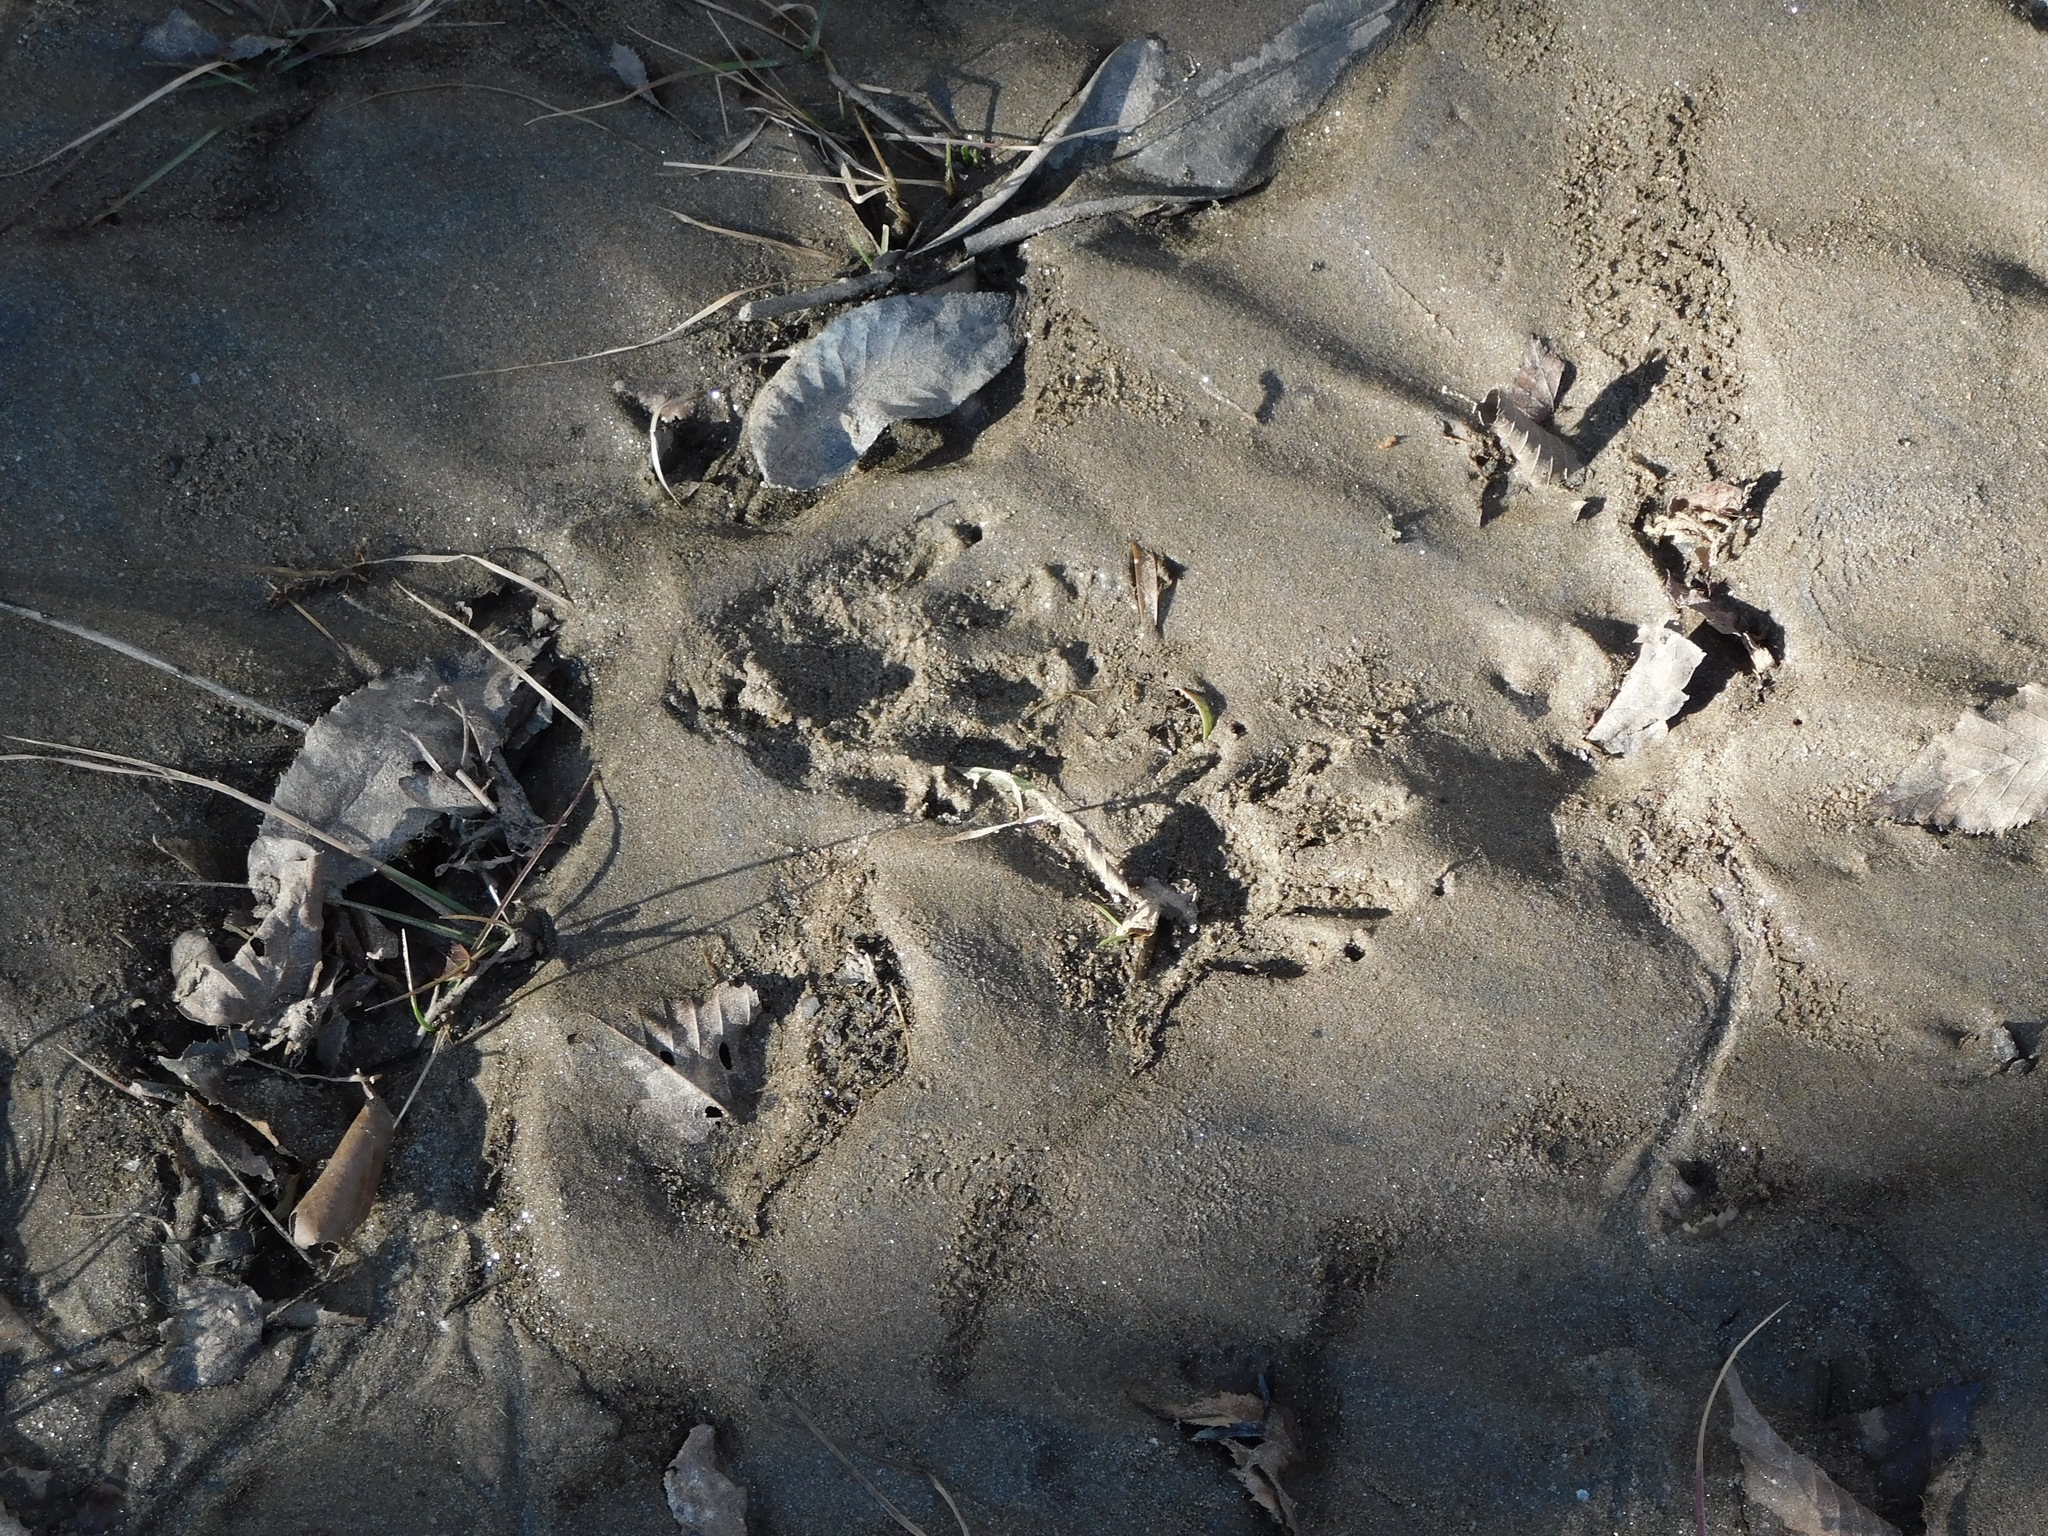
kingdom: Animalia
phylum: Chordata
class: Mammalia
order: Carnivora
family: Mustelidae
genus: Lontra
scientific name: Lontra canadensis
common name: North american river otter
